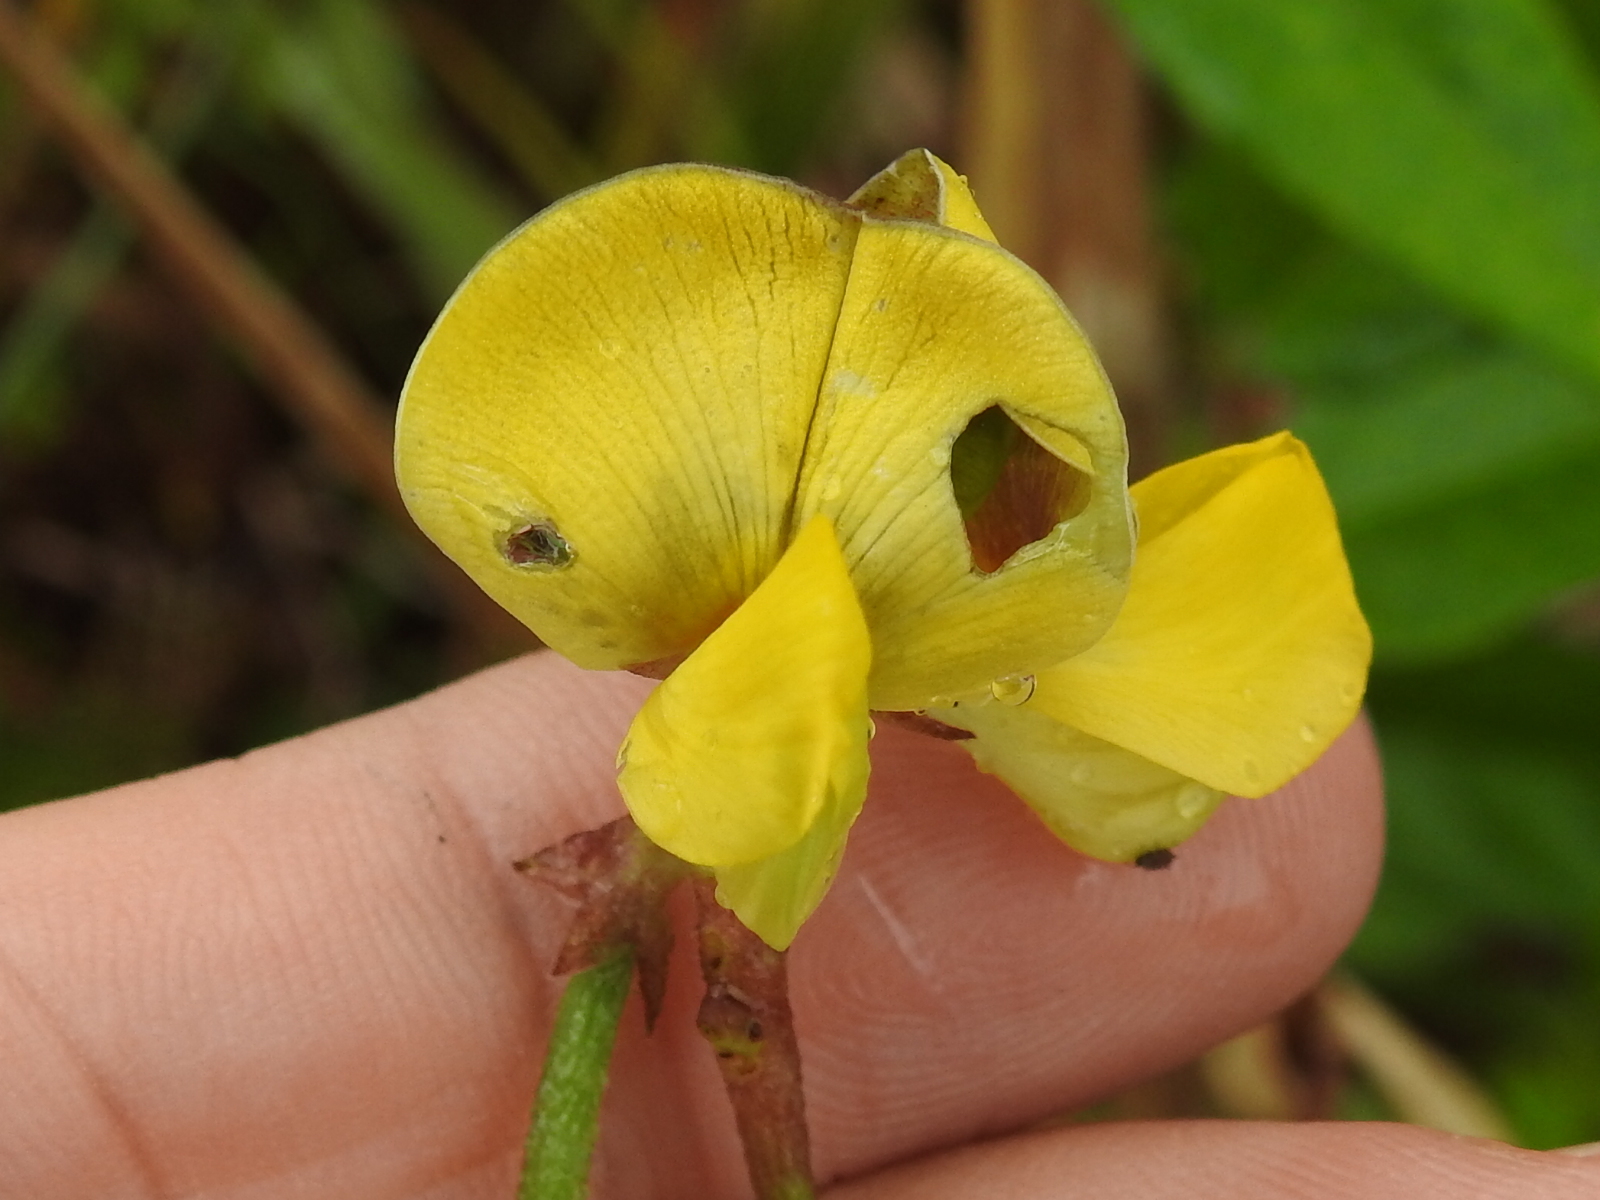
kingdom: Plantae
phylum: Tracheophyta
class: Magnoliopsida
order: Fabales
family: Fabaceae
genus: Vigna
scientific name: Vigna luteola
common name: Hairypod cowpea
